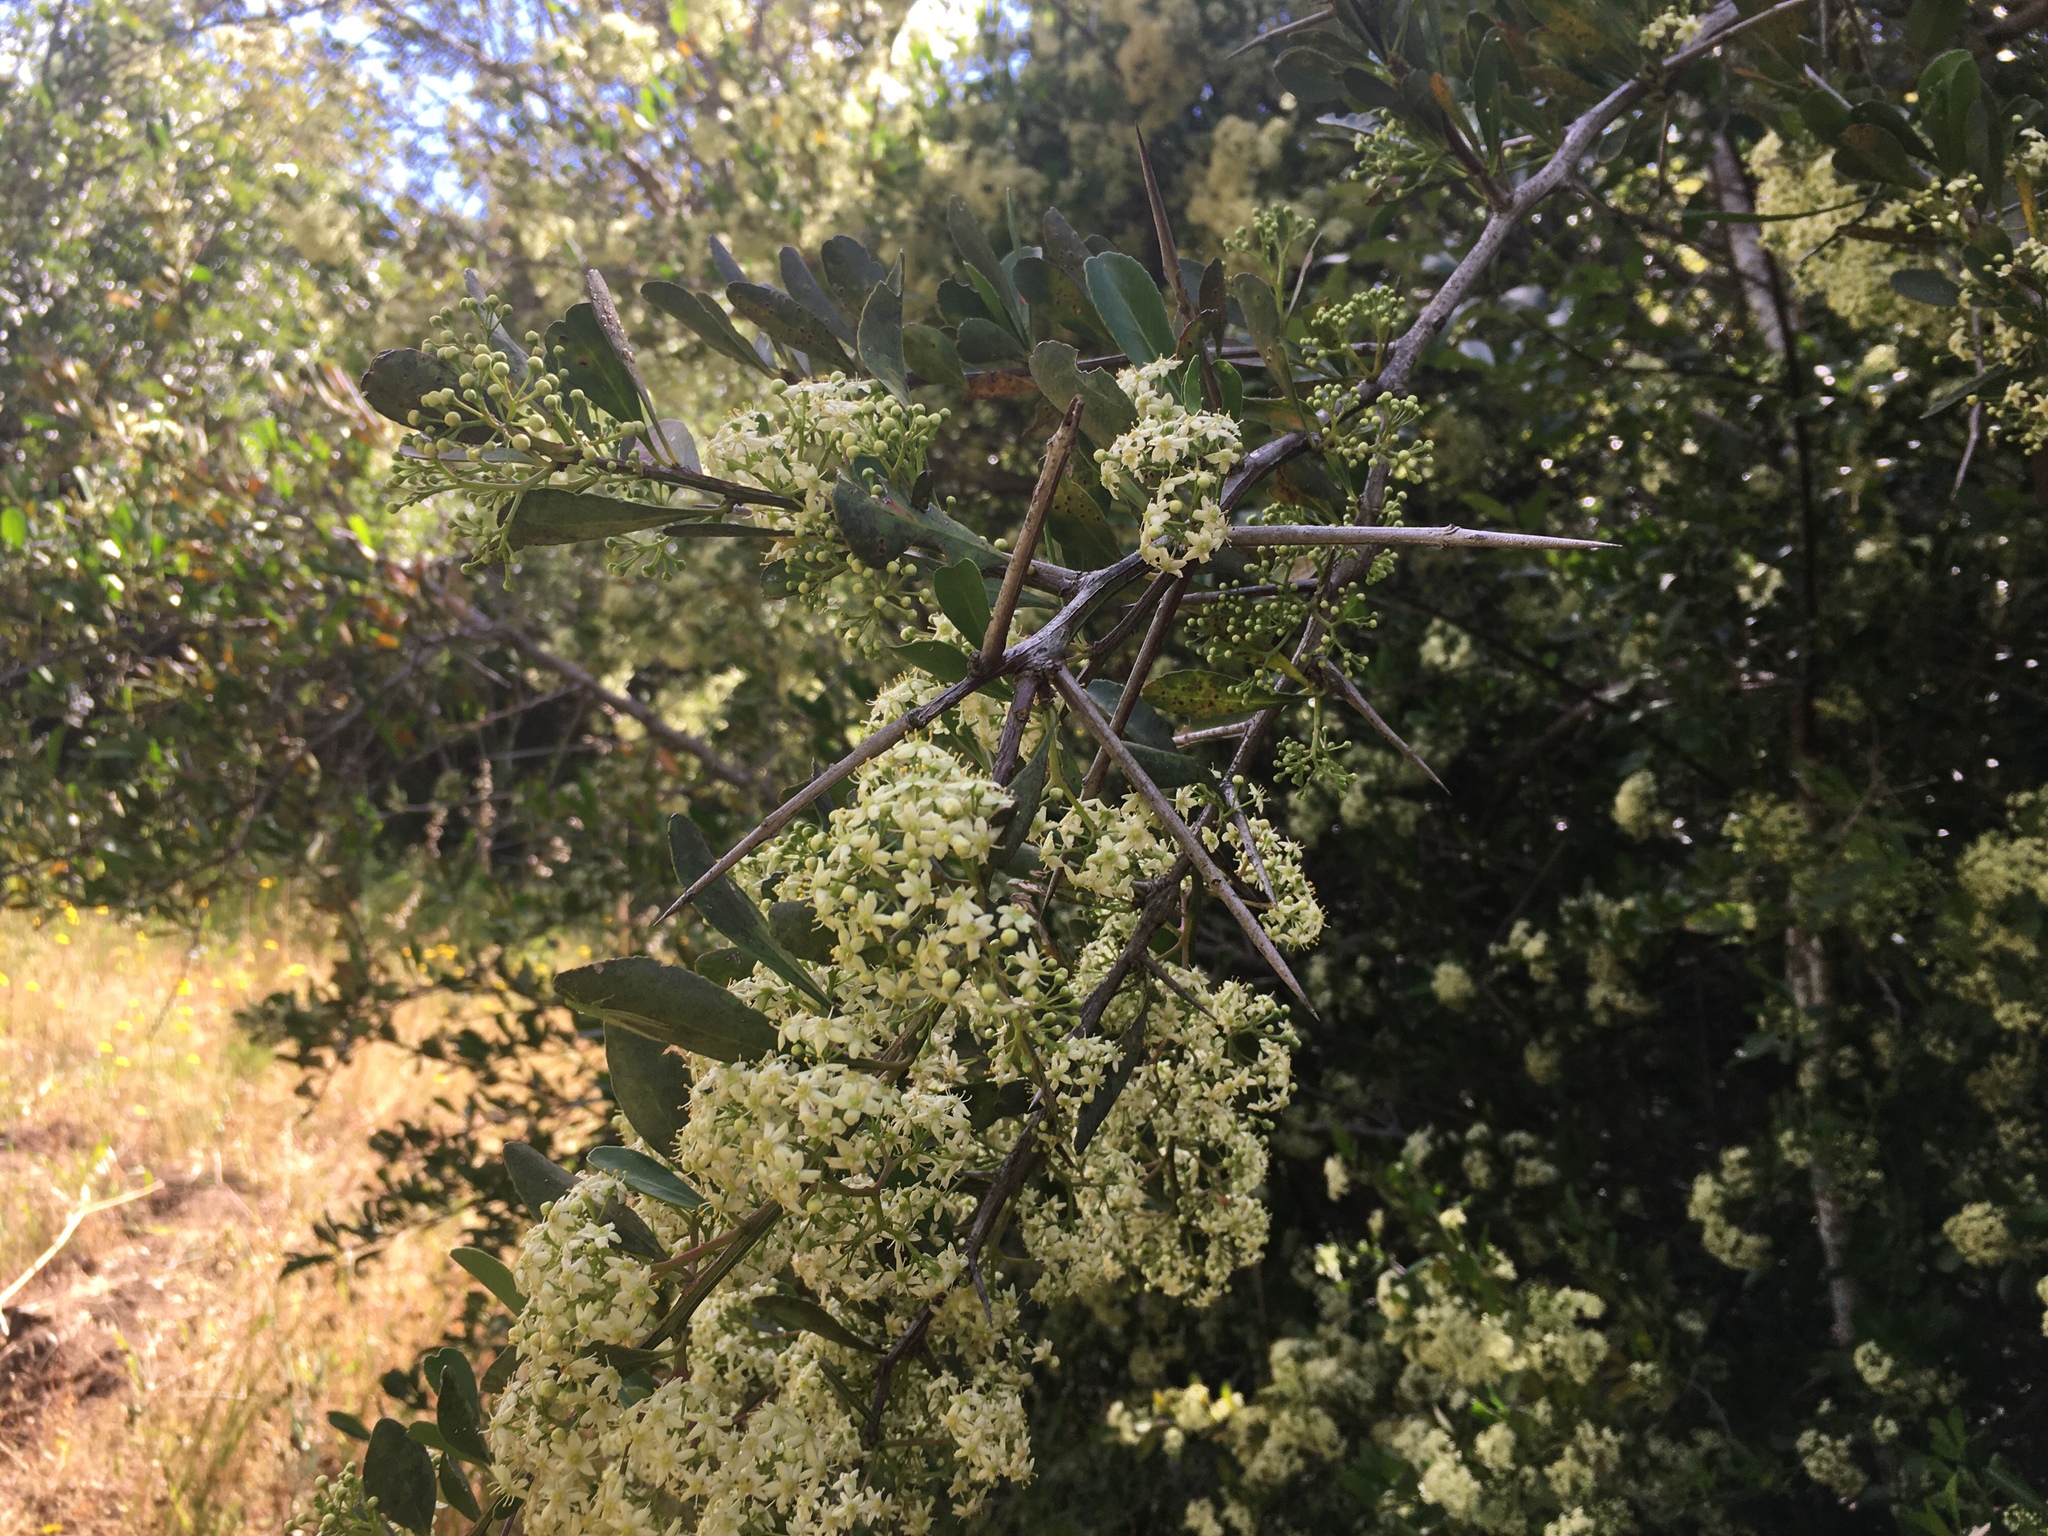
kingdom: Plantae
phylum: Tracheophyta
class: Magnoliopsida
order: Celastrales
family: Celastraceae
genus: Gymnosporia
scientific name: Gymnosporia buxifolia
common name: Common spike-thorn
